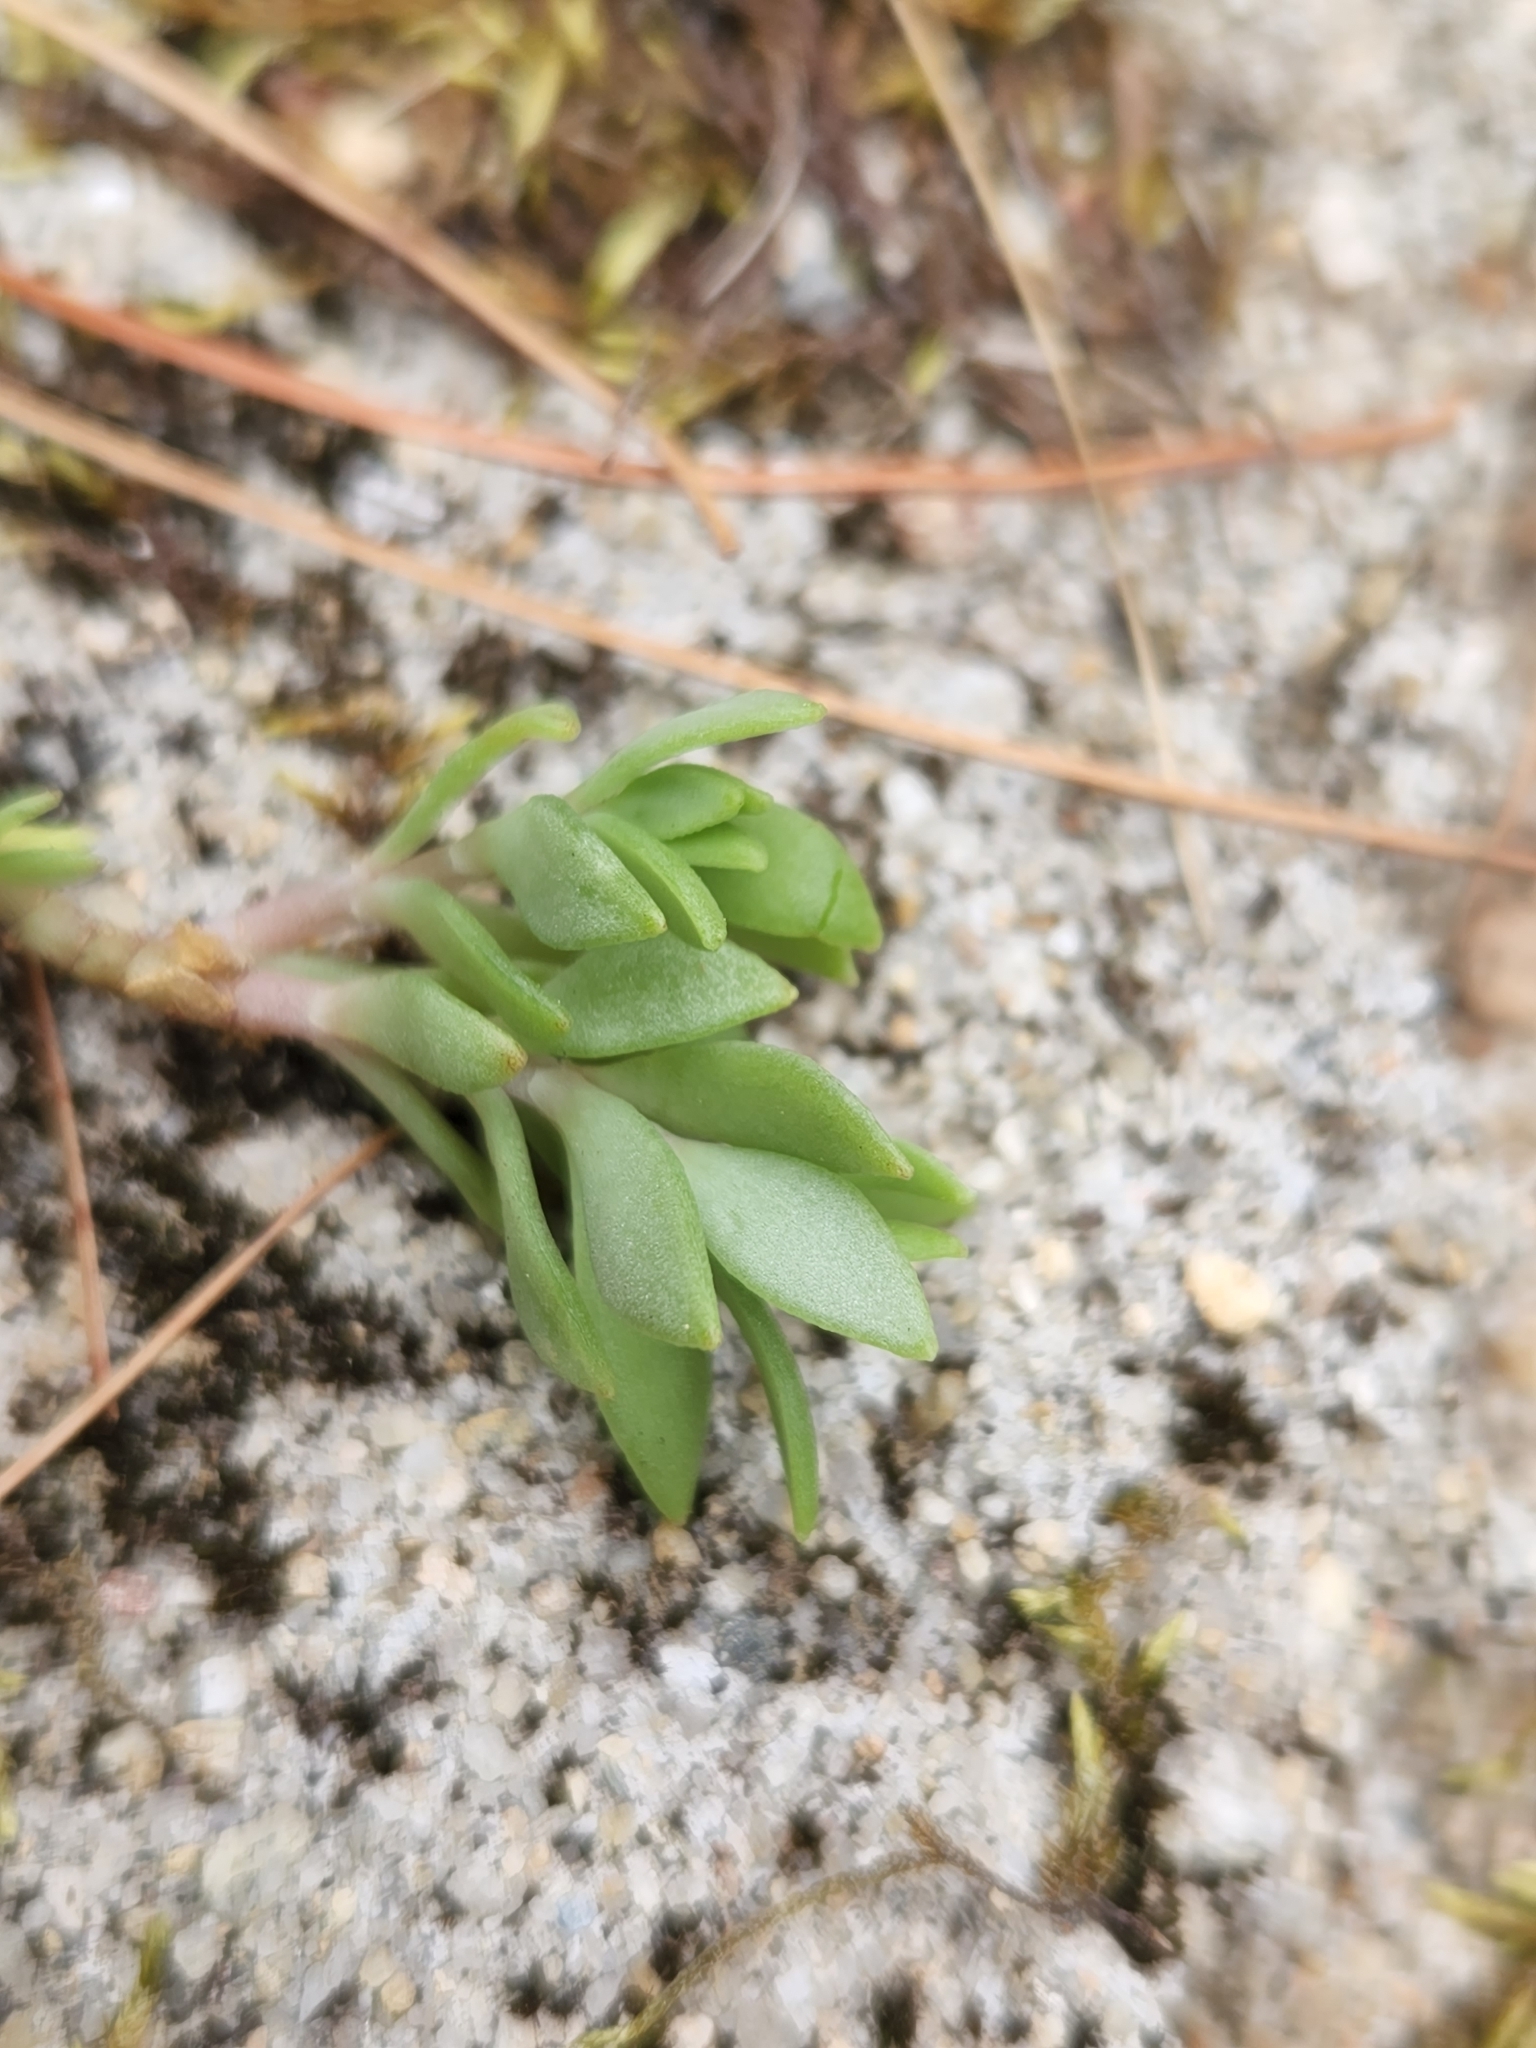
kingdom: Plantae
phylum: Tracheophyta
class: Magnoliopsida
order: Saxifragales
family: Crassulaceae
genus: Sedum
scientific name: Sedum sarmentosum
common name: Stringy stonecrop
